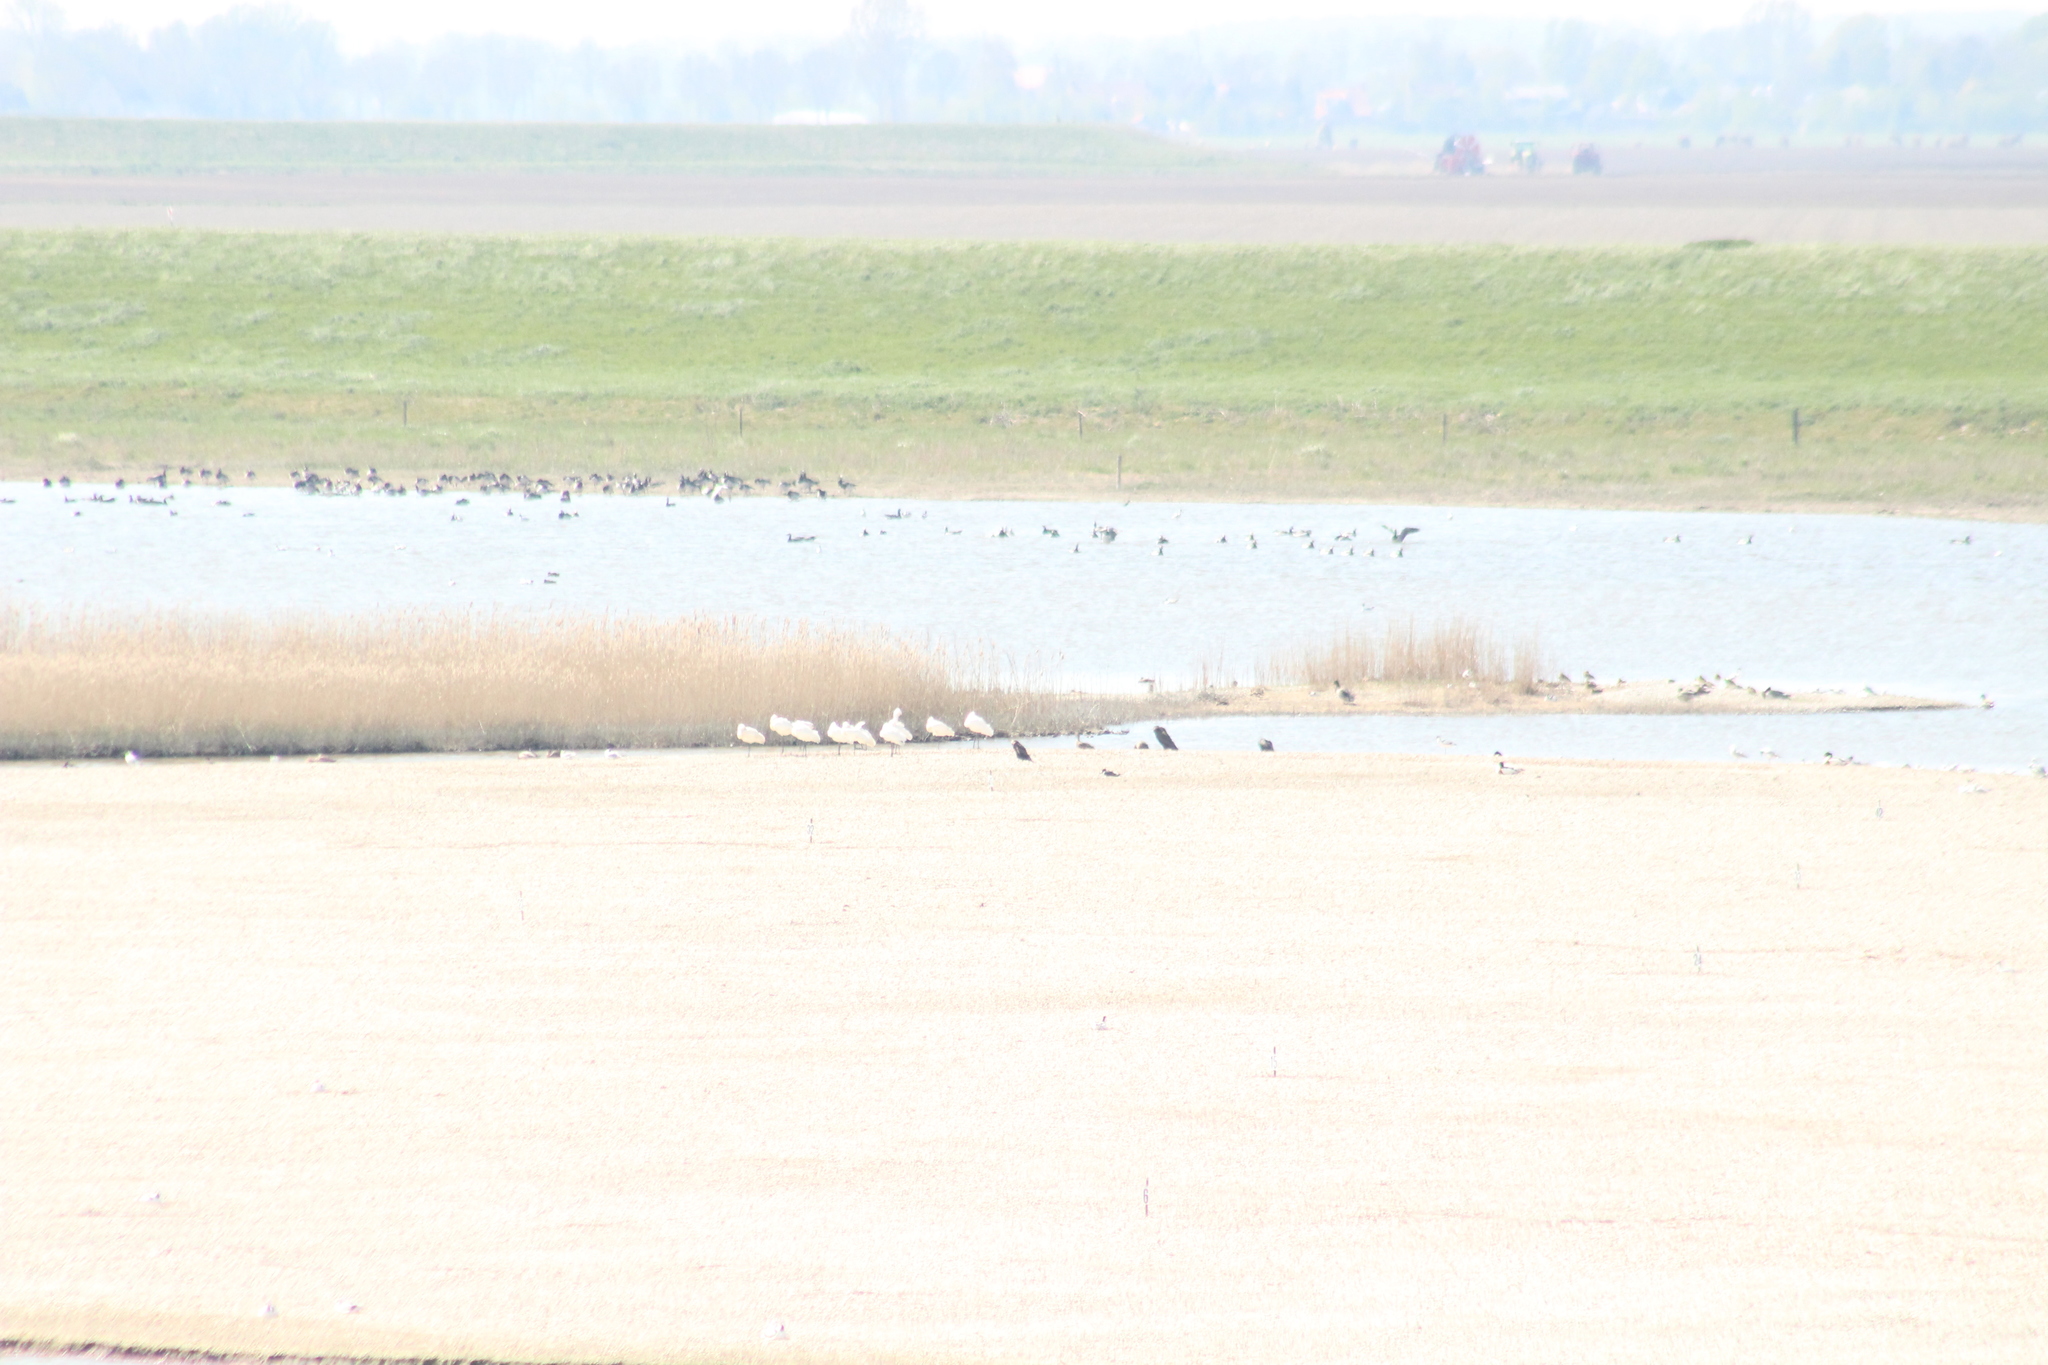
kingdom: Animalia
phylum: Chordata
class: Aves
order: Pelecaniformes
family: Threskiornithidae
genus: Platalea
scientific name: Platalea leucorodia
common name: Eurasian spoonbill
